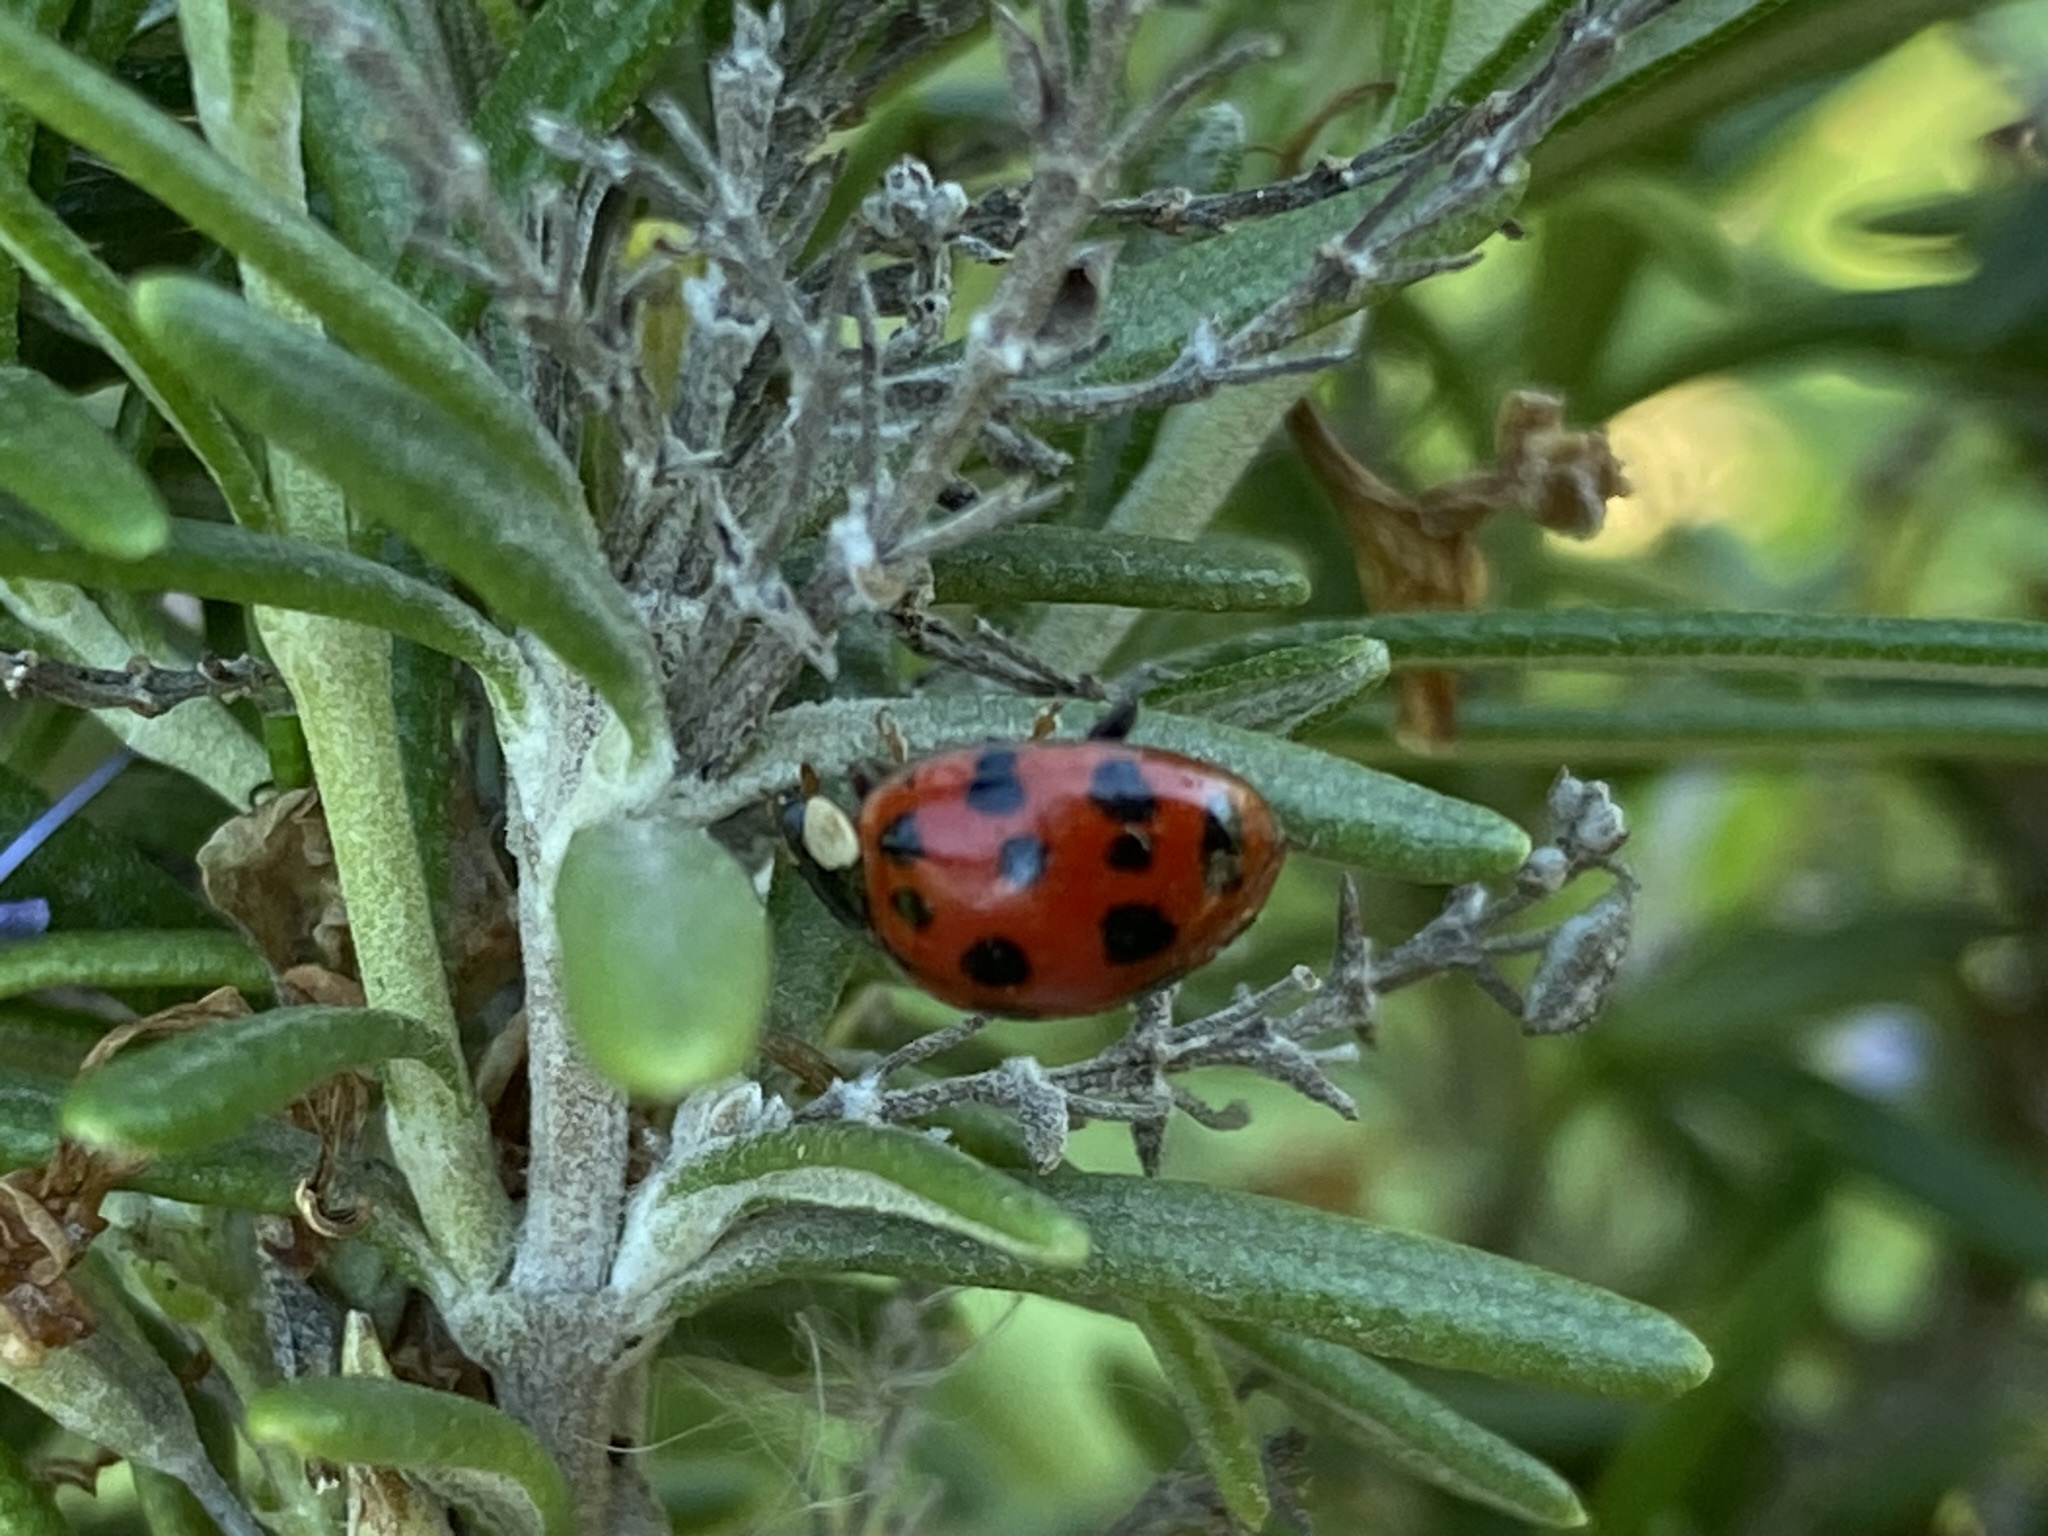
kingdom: Animalia
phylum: Arthropoda
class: Insecta
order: Coleoptera
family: Coccinellidae
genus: Harmonia
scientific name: Harmonia axyridis
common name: Harlequin ladybird
